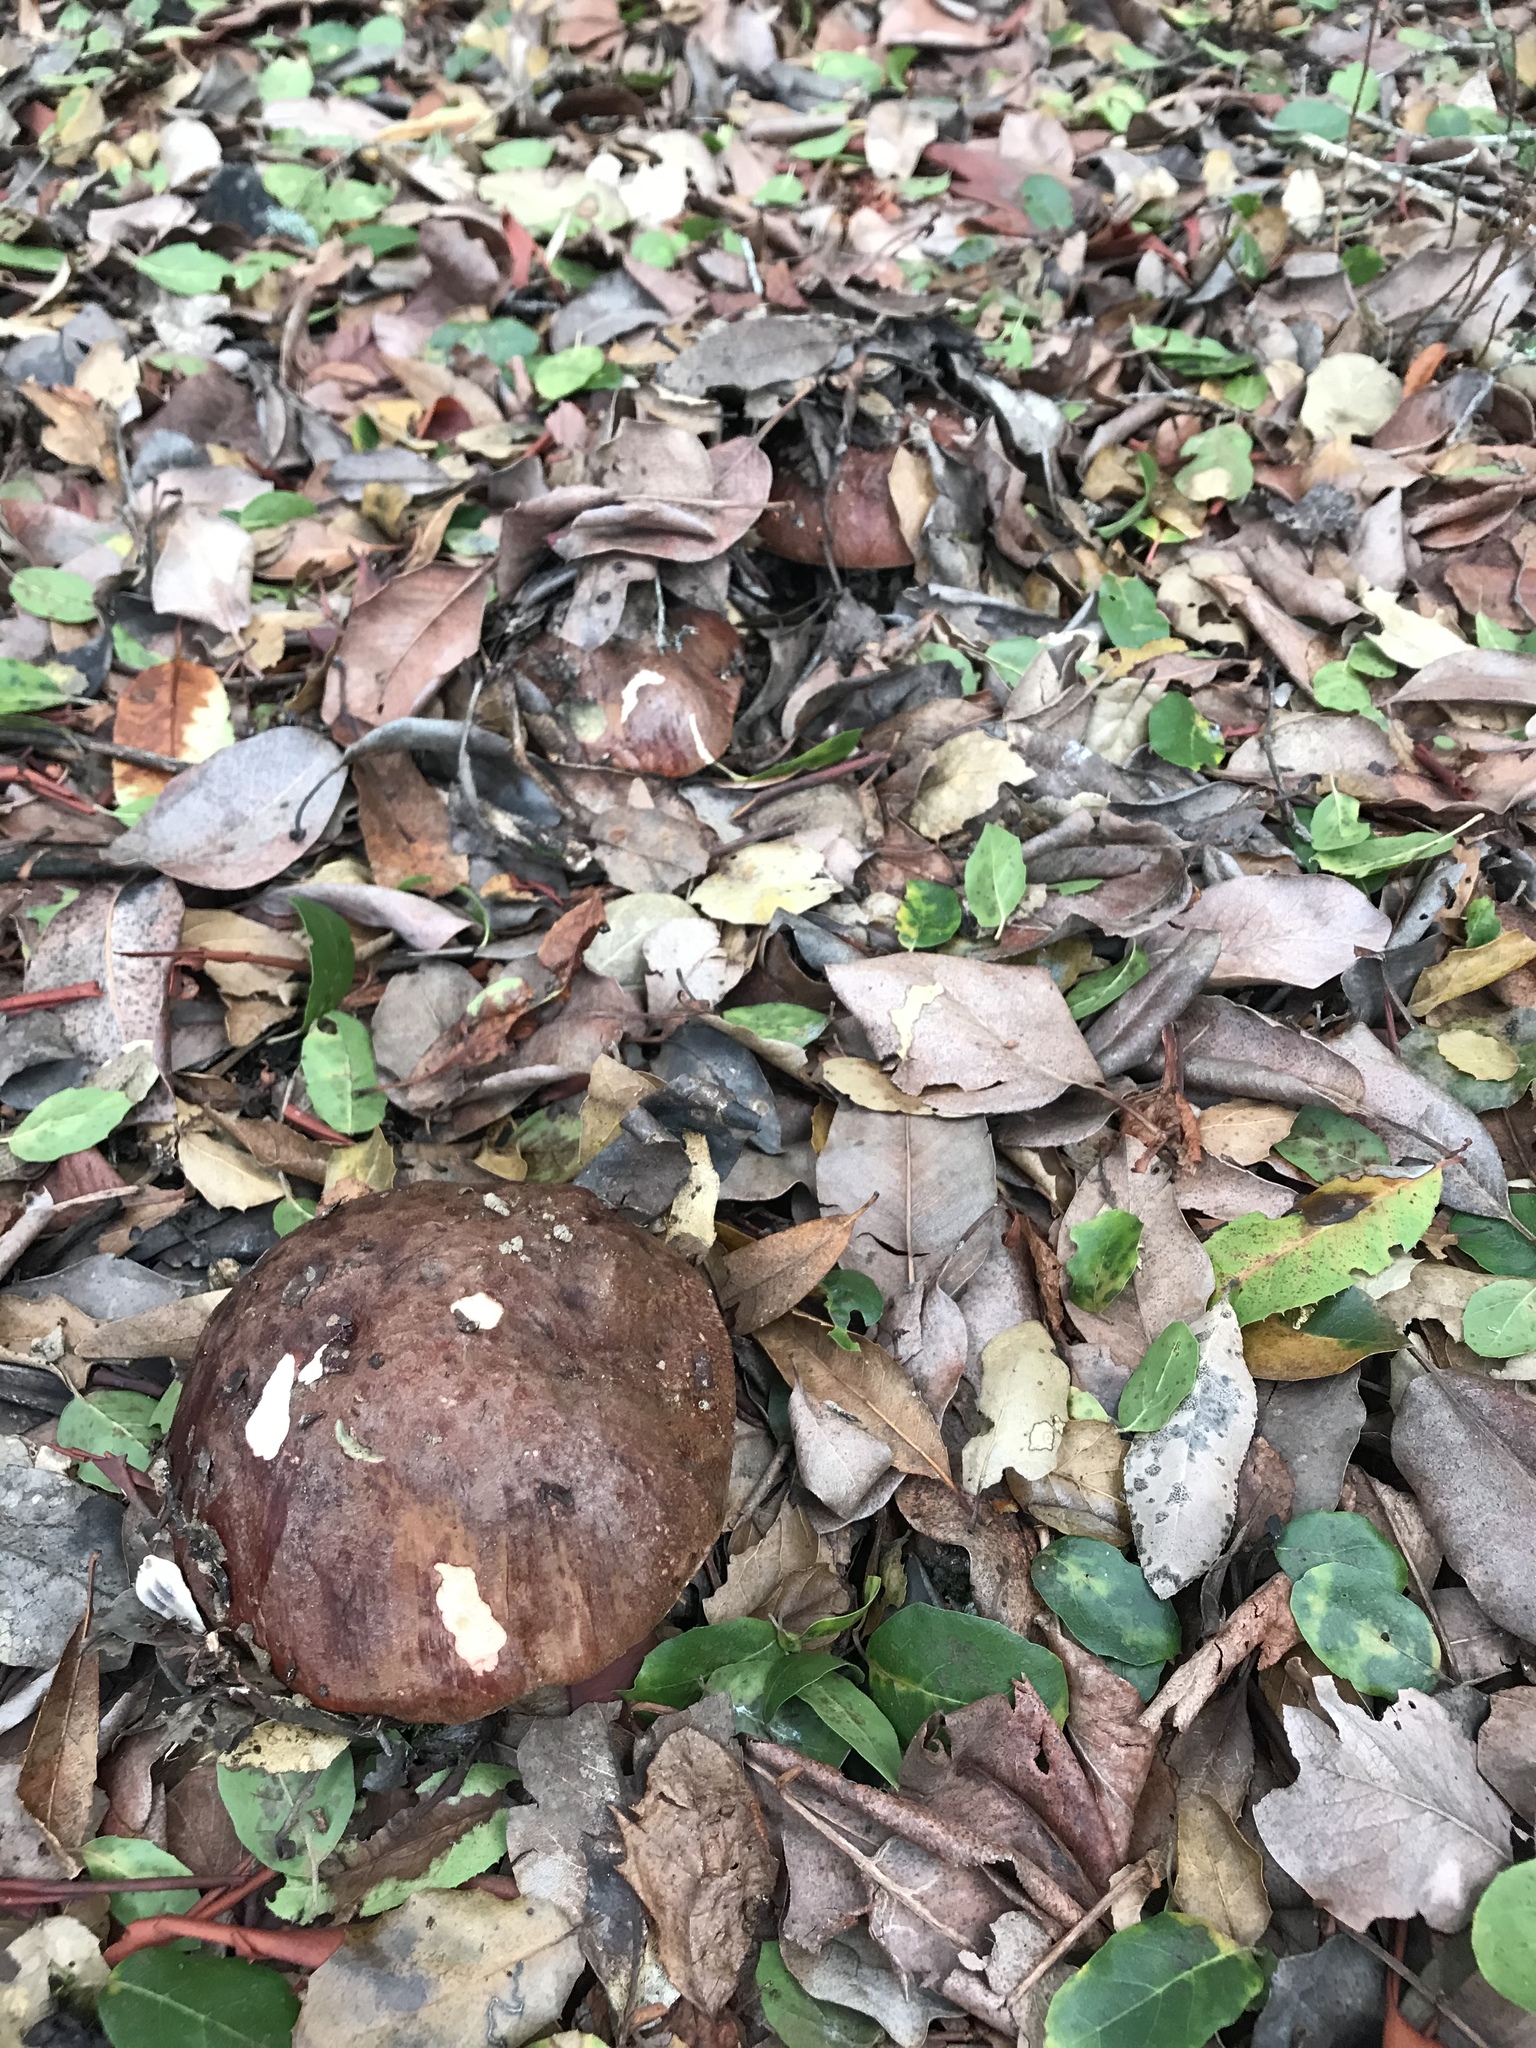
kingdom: Fungi
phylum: Basidiomycota
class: Agaricomycetes
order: Boletales
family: Boletaceae
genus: Leccinum
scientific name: Leccinum manzanitae
